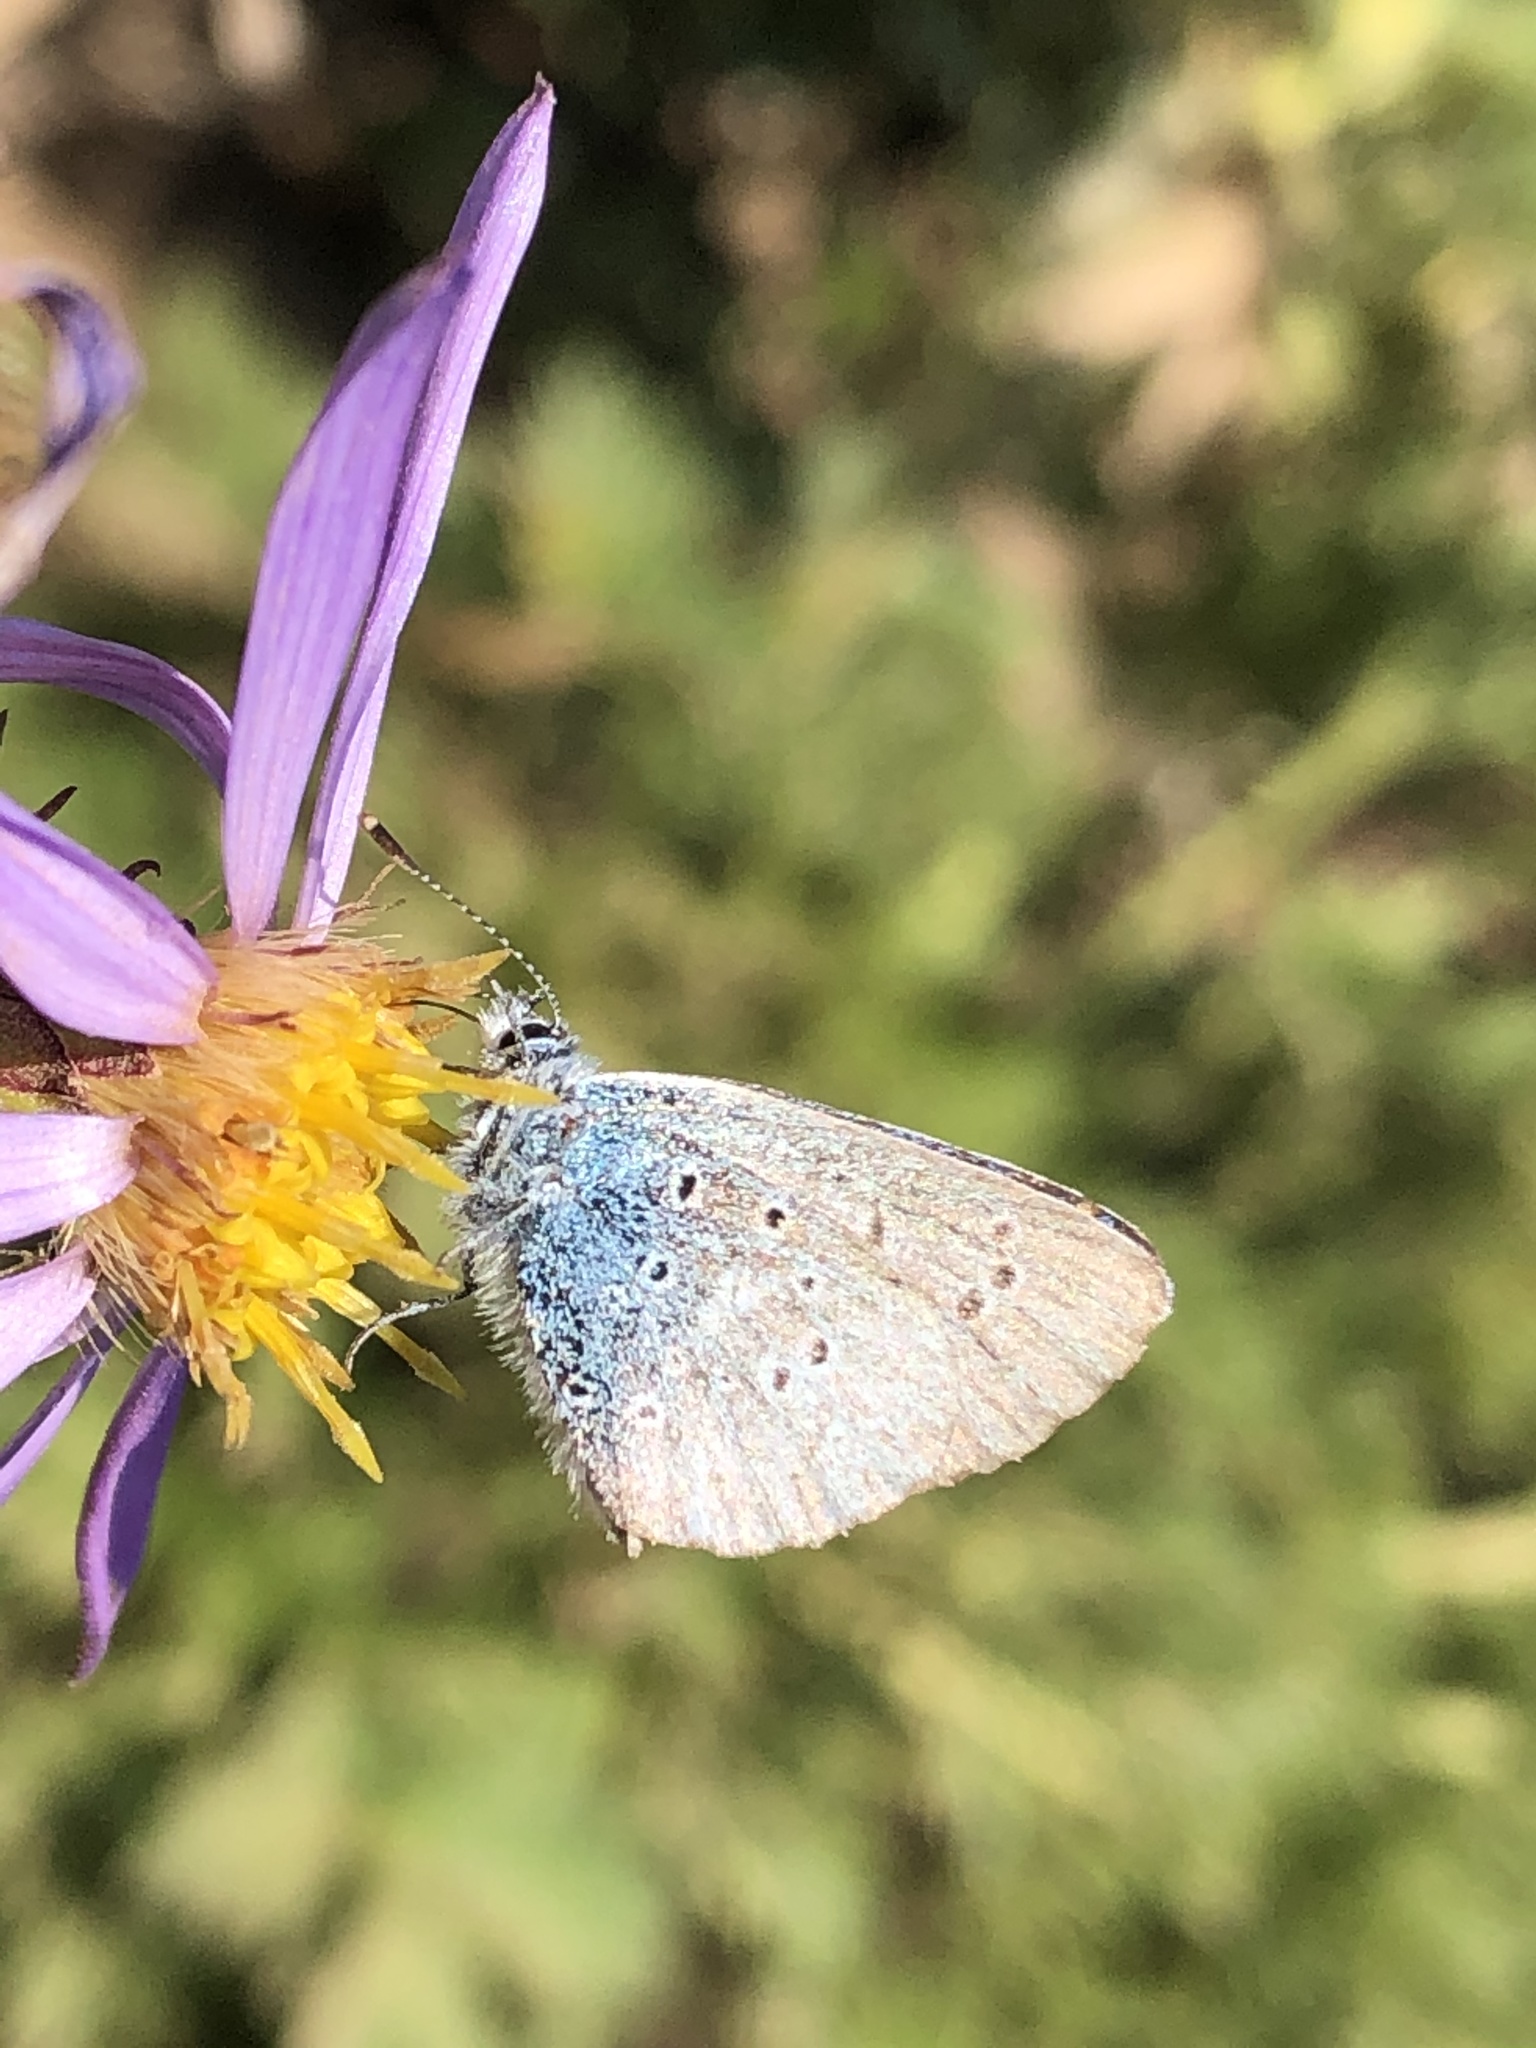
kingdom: Animalia
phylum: Arthropoda
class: Insecta
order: Lepidoptera
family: Lycaenidae
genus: Lycaeides
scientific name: Lycaeides anna
